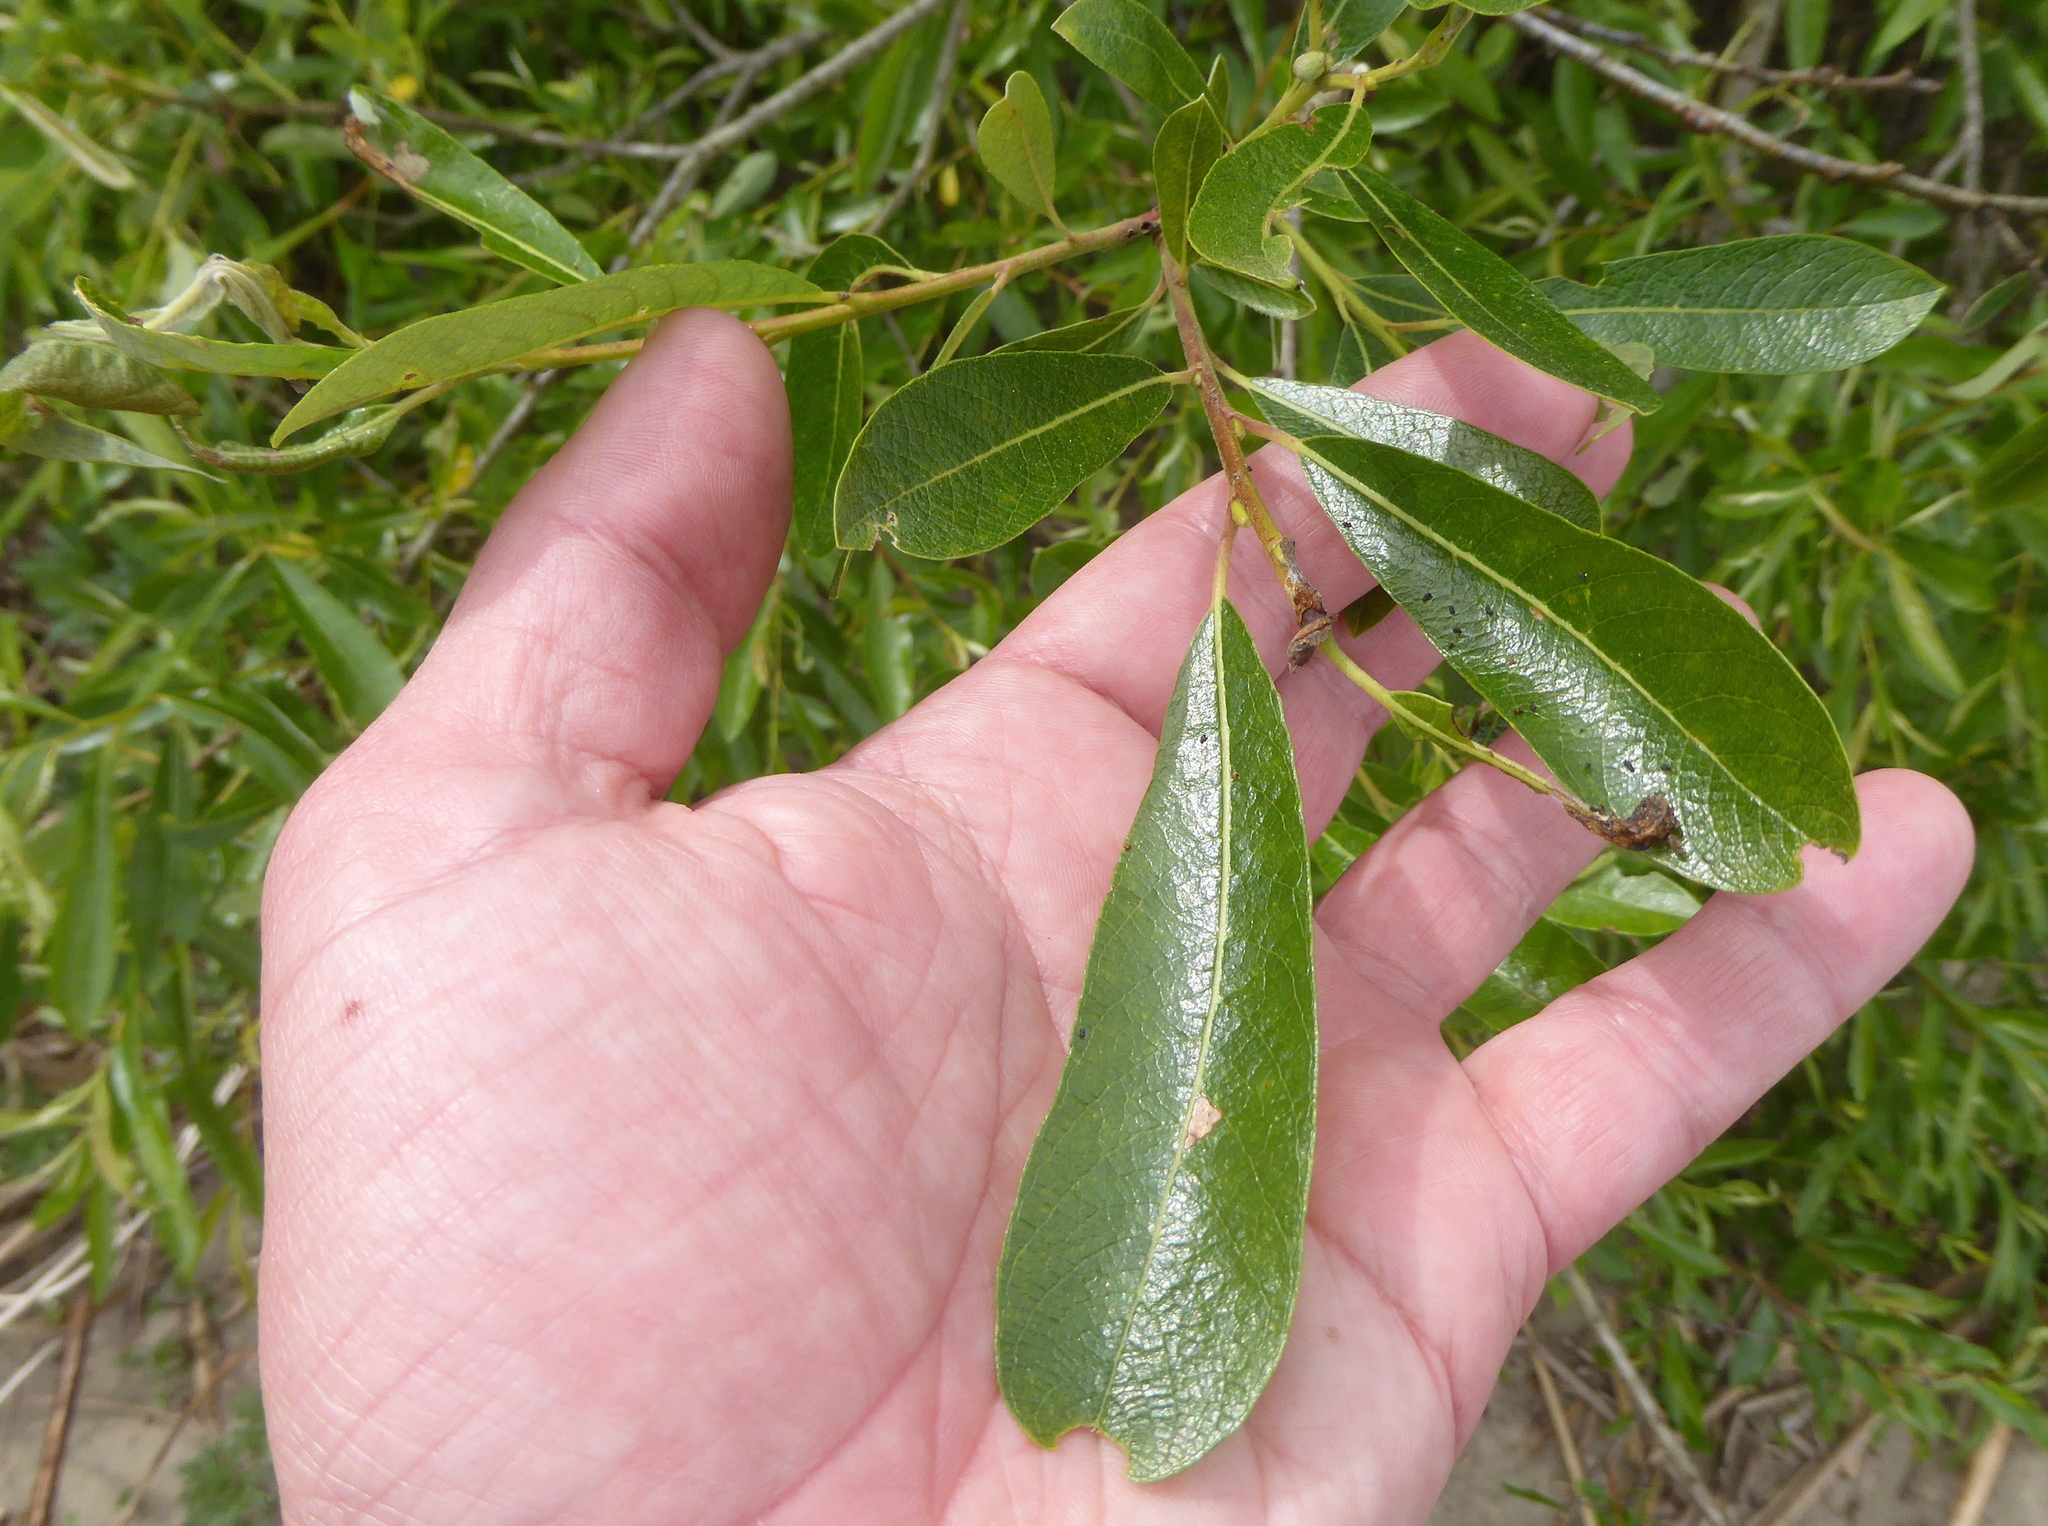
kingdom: Plantae
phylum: Tracheophyta
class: Magnoliopsida
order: Malpighiales
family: Salicaceae
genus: Salix
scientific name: Salix lasiolepis
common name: Arroyo willow
